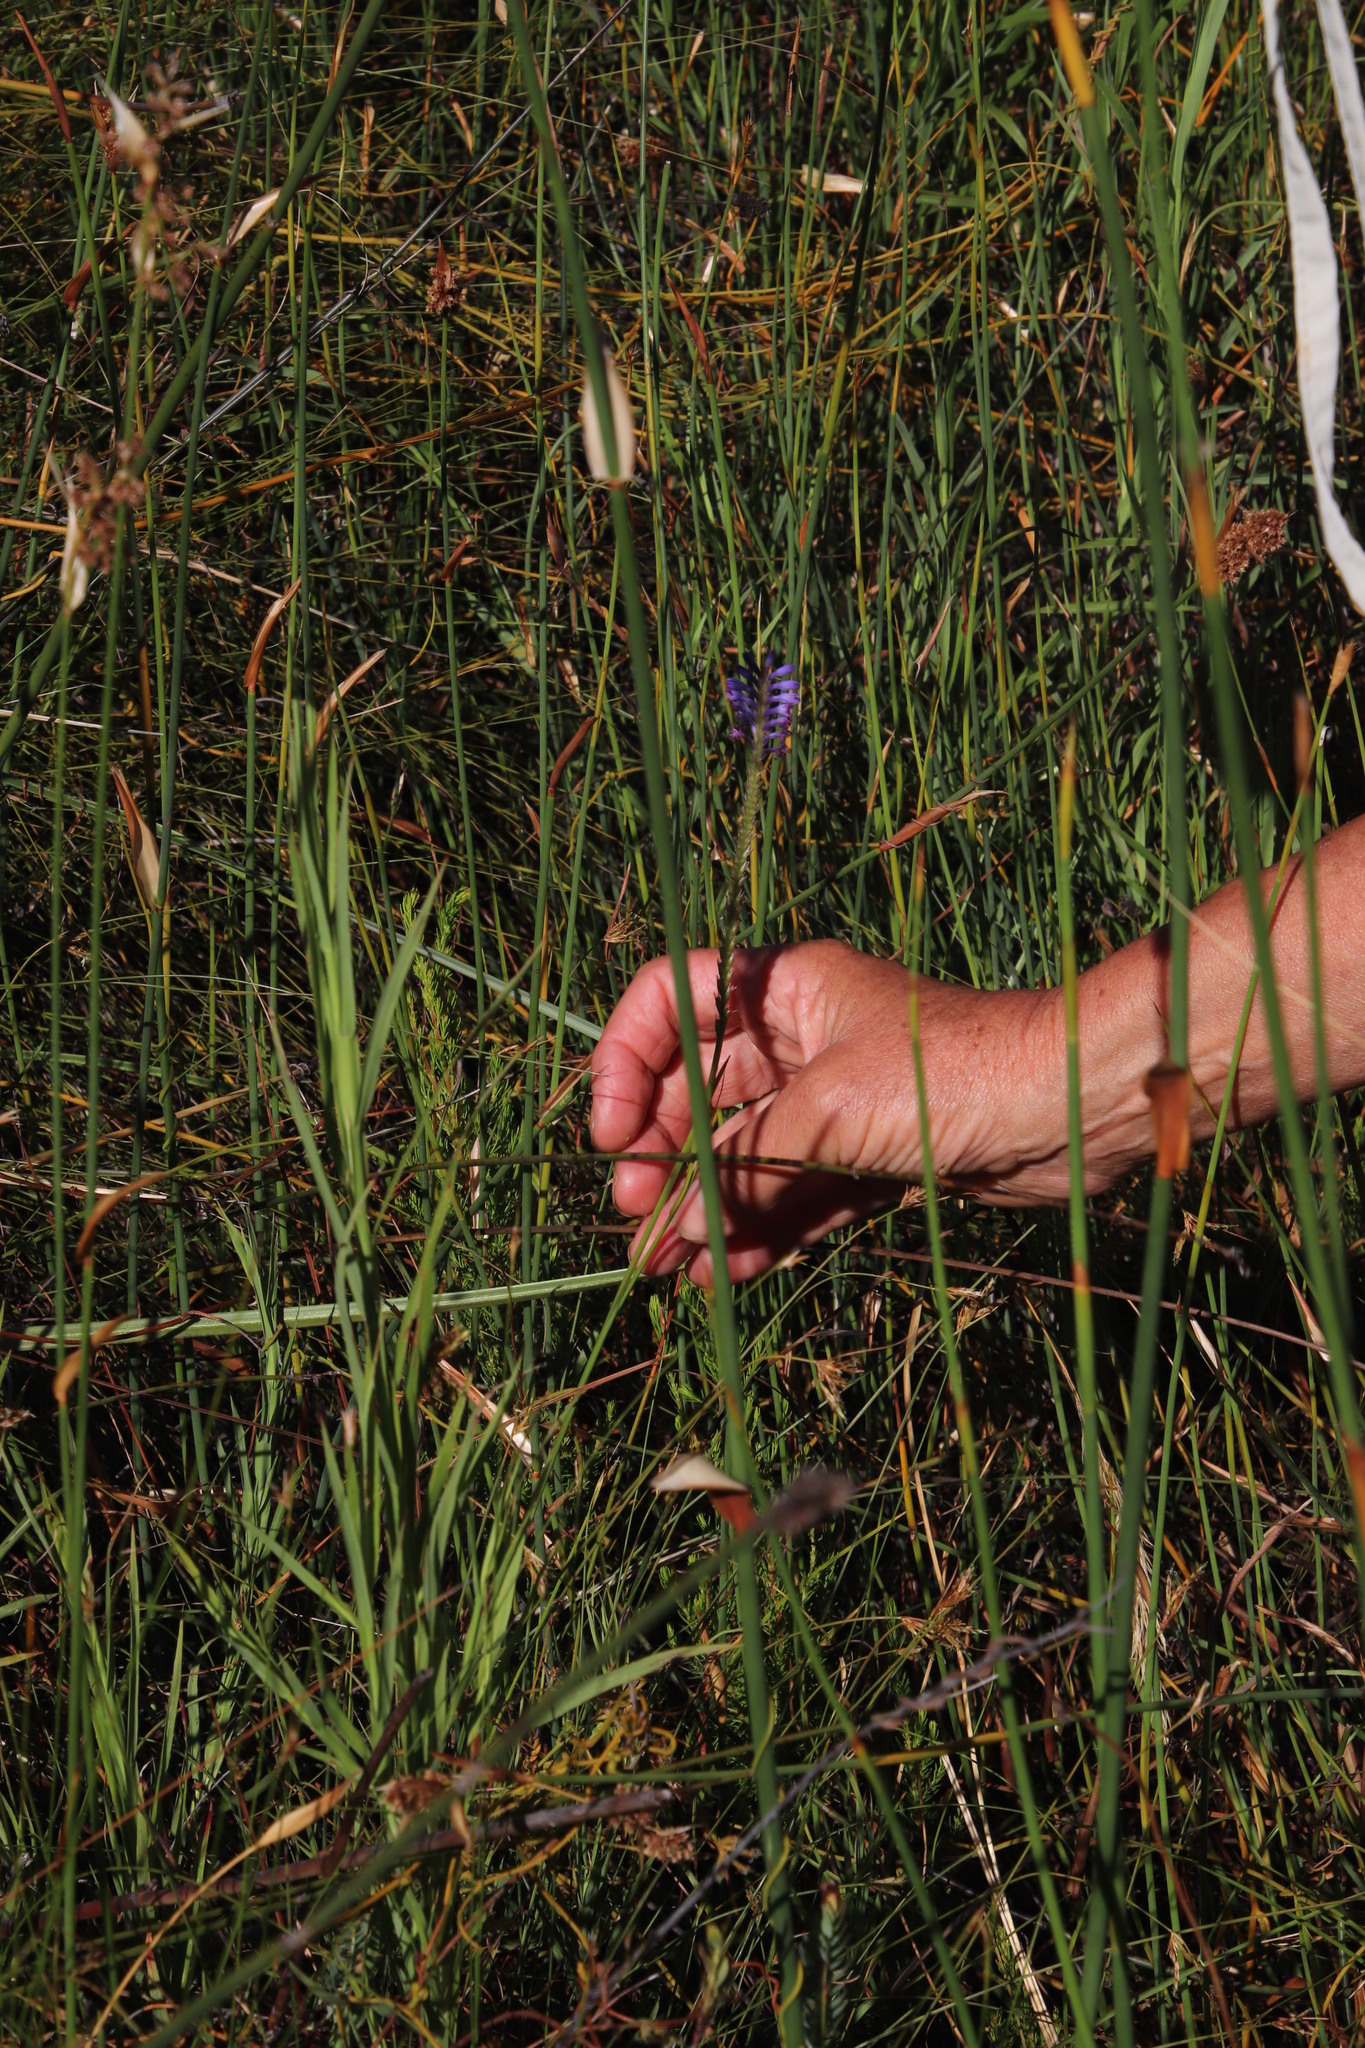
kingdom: Plantae
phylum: Tracheophyta
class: Liliopsida
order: Asparagales
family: Iridaceae
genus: Micranthus
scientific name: Micranthus plantagineus
